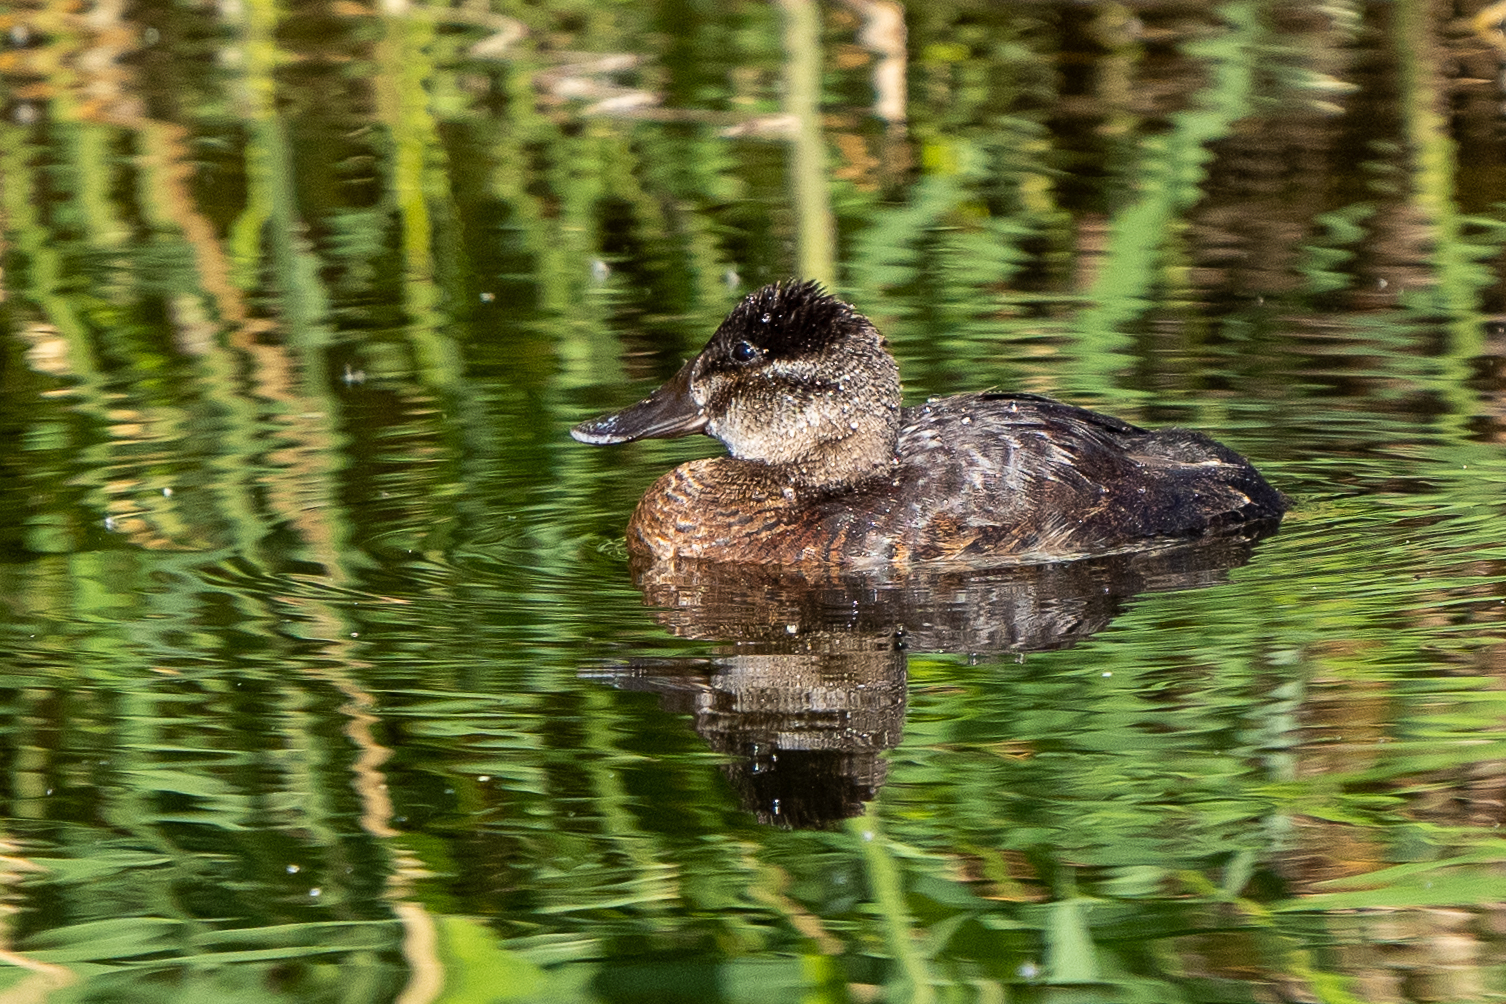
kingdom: Animalia
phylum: Chordata
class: Aves
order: Anseriformes
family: Anatidae
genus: Oxyura
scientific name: Oxyura jamaicensis
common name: Ruddy duck
